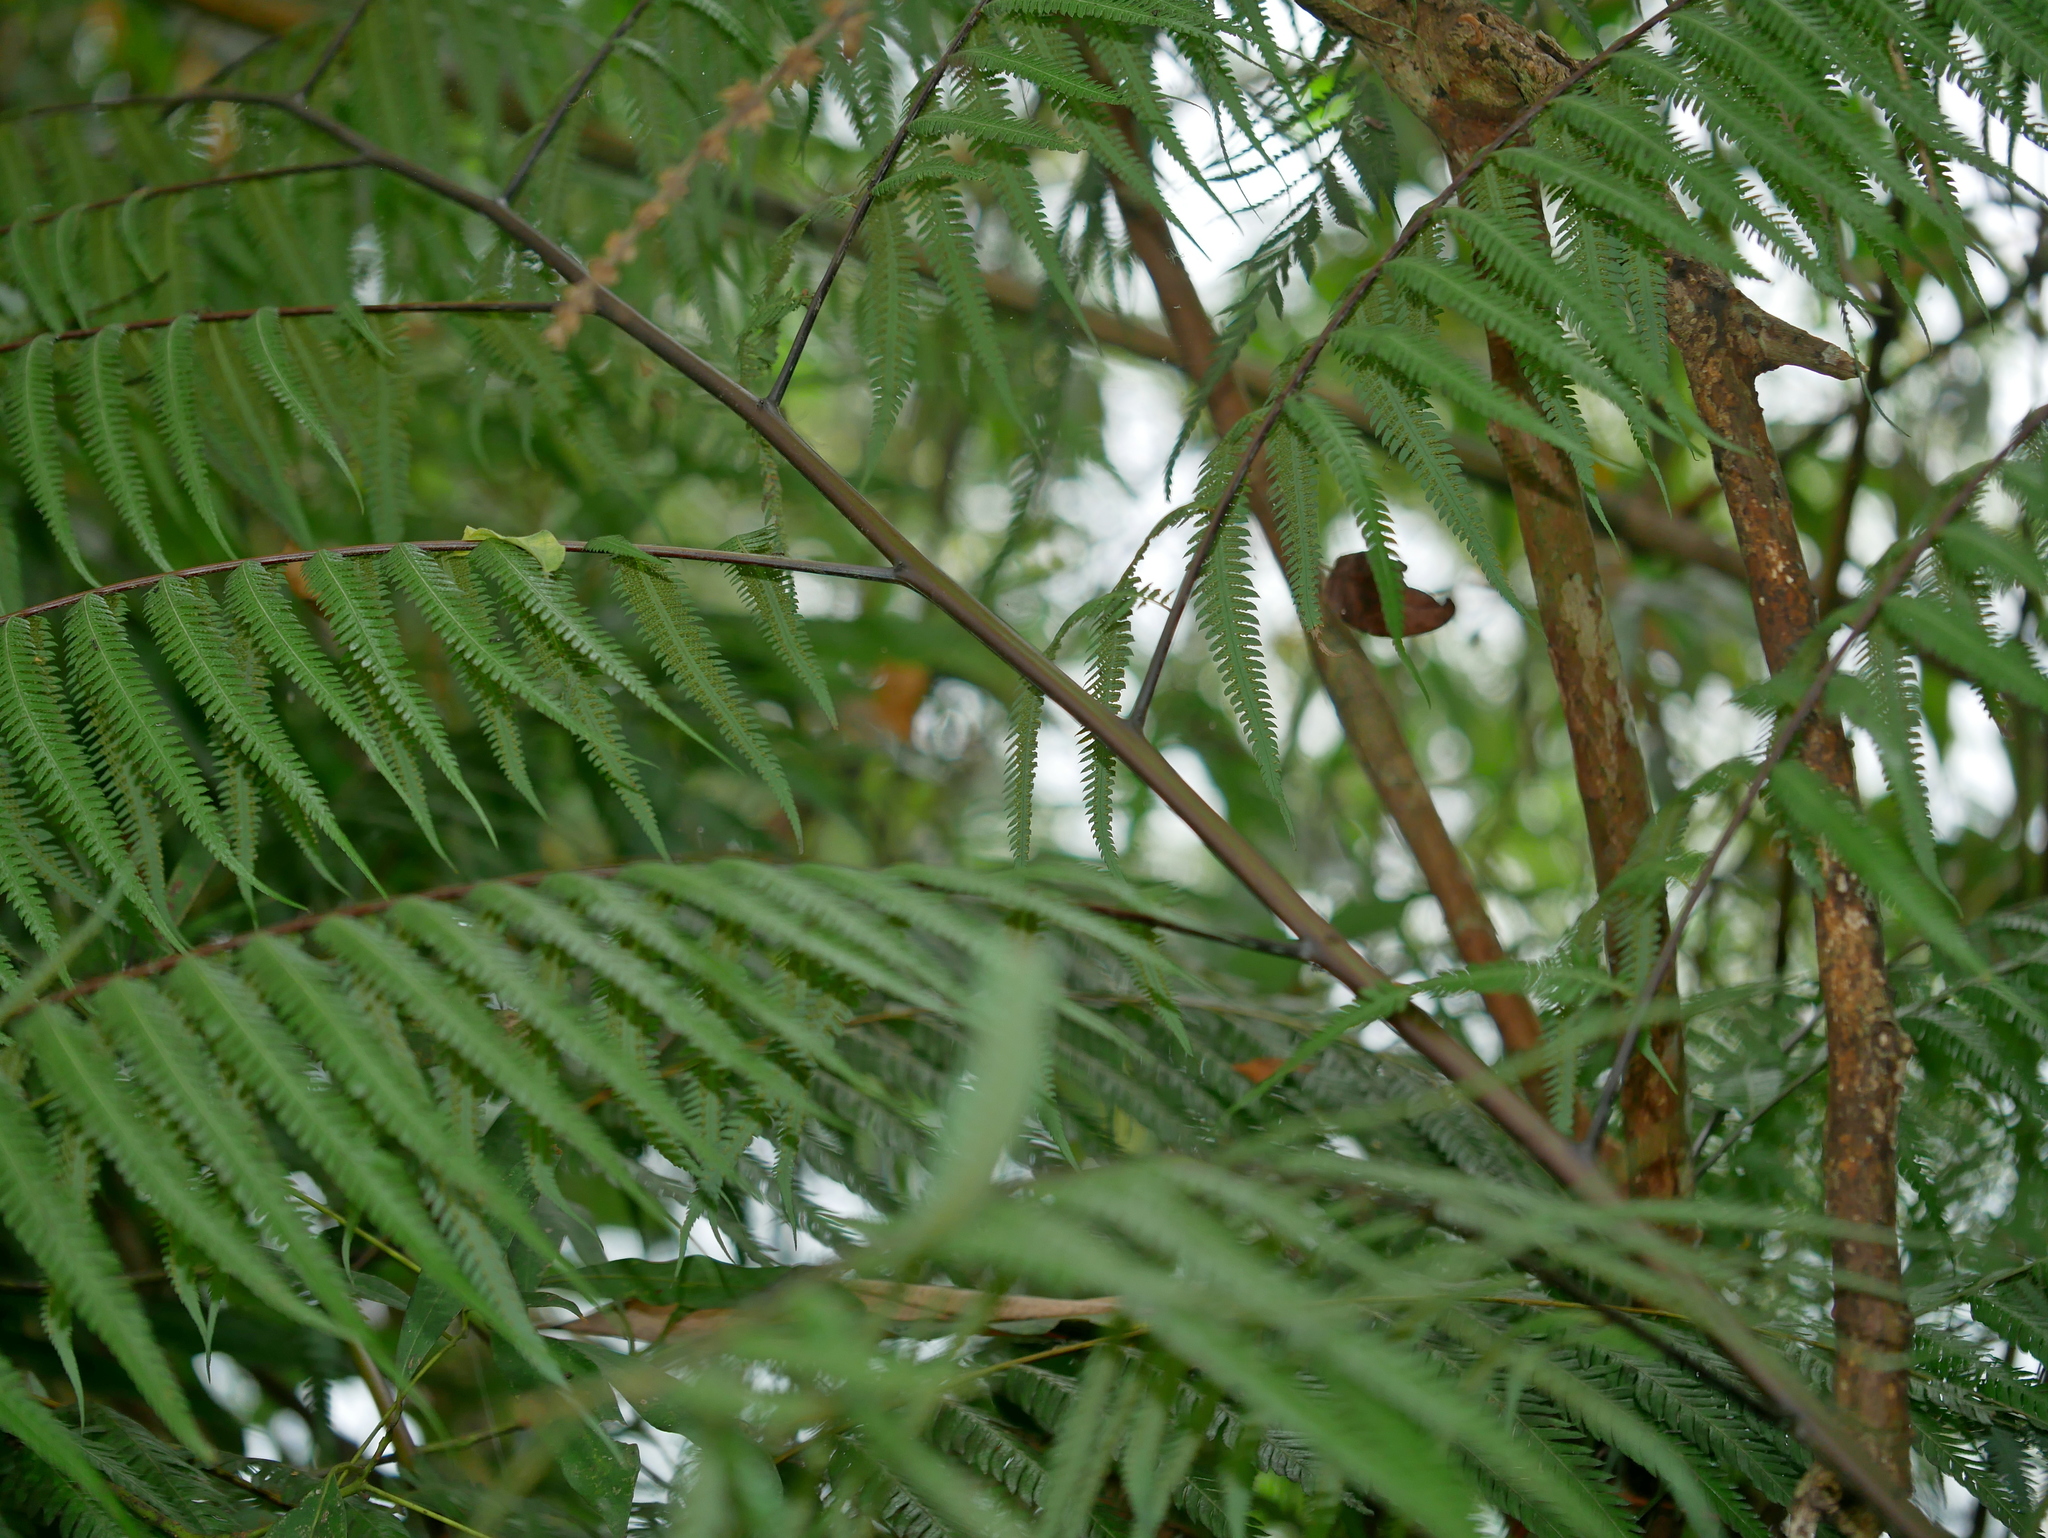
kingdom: Plantae
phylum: Tracheophyta
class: Polypodiopsida
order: Cyatheales
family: Cibotiaceae
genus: Cibotium
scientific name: Cibotium barometz
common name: Scythian-lamb
